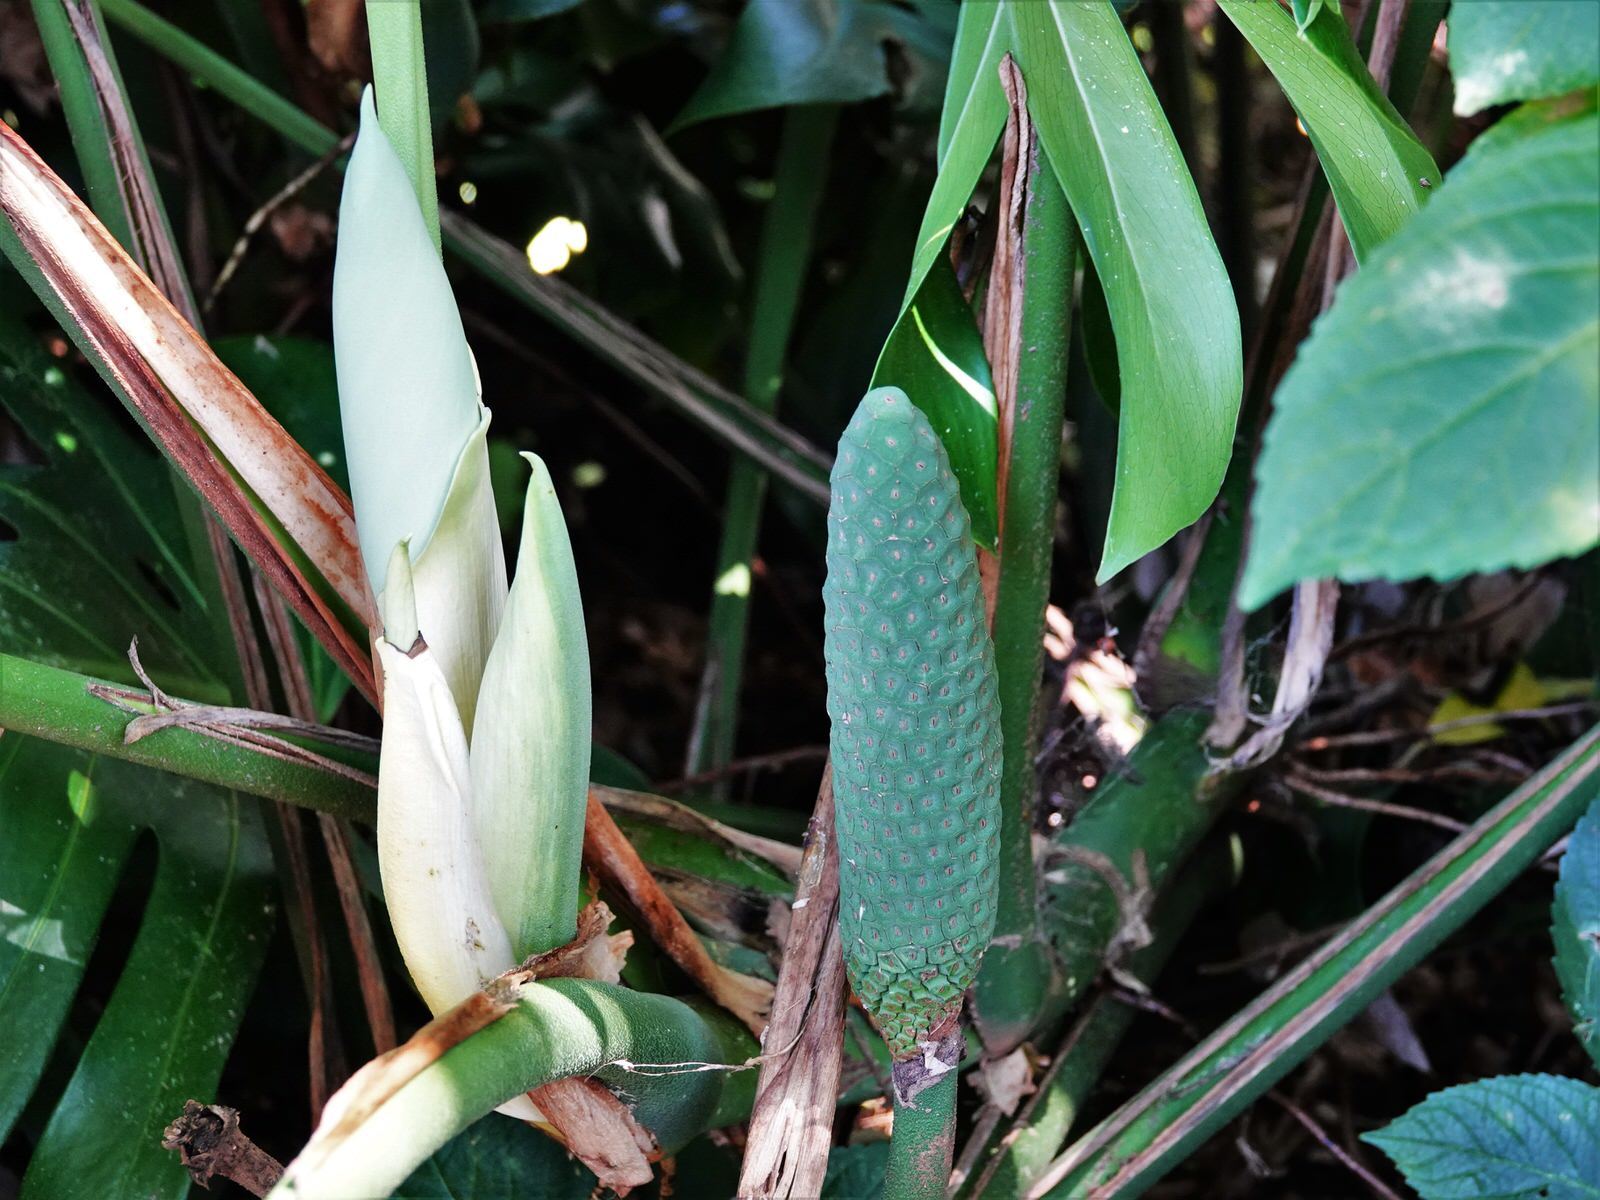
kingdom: Plantae
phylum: Tracheophyta
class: Liliopsida
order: Alismatales
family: Araceae
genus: Monstera
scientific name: Monstera deliciosa
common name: Cut-leaf-philodendron
